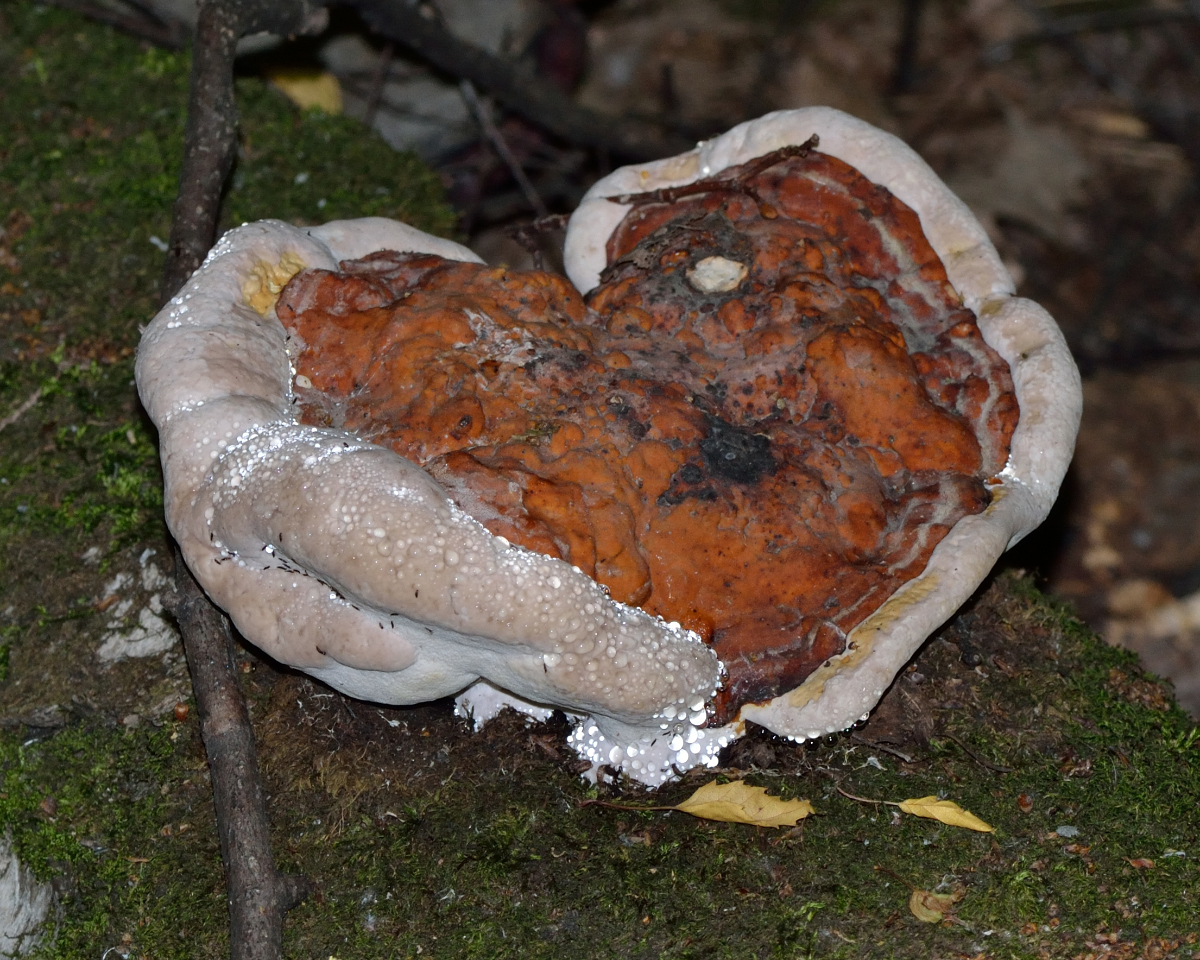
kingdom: Fungi
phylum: Basidiomycota
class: Agaricomycetes
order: Polyporales
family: Fomitopsidaceae
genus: Fomitopsis
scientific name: Fomitopsis pinicola
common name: Red-belted bracket
